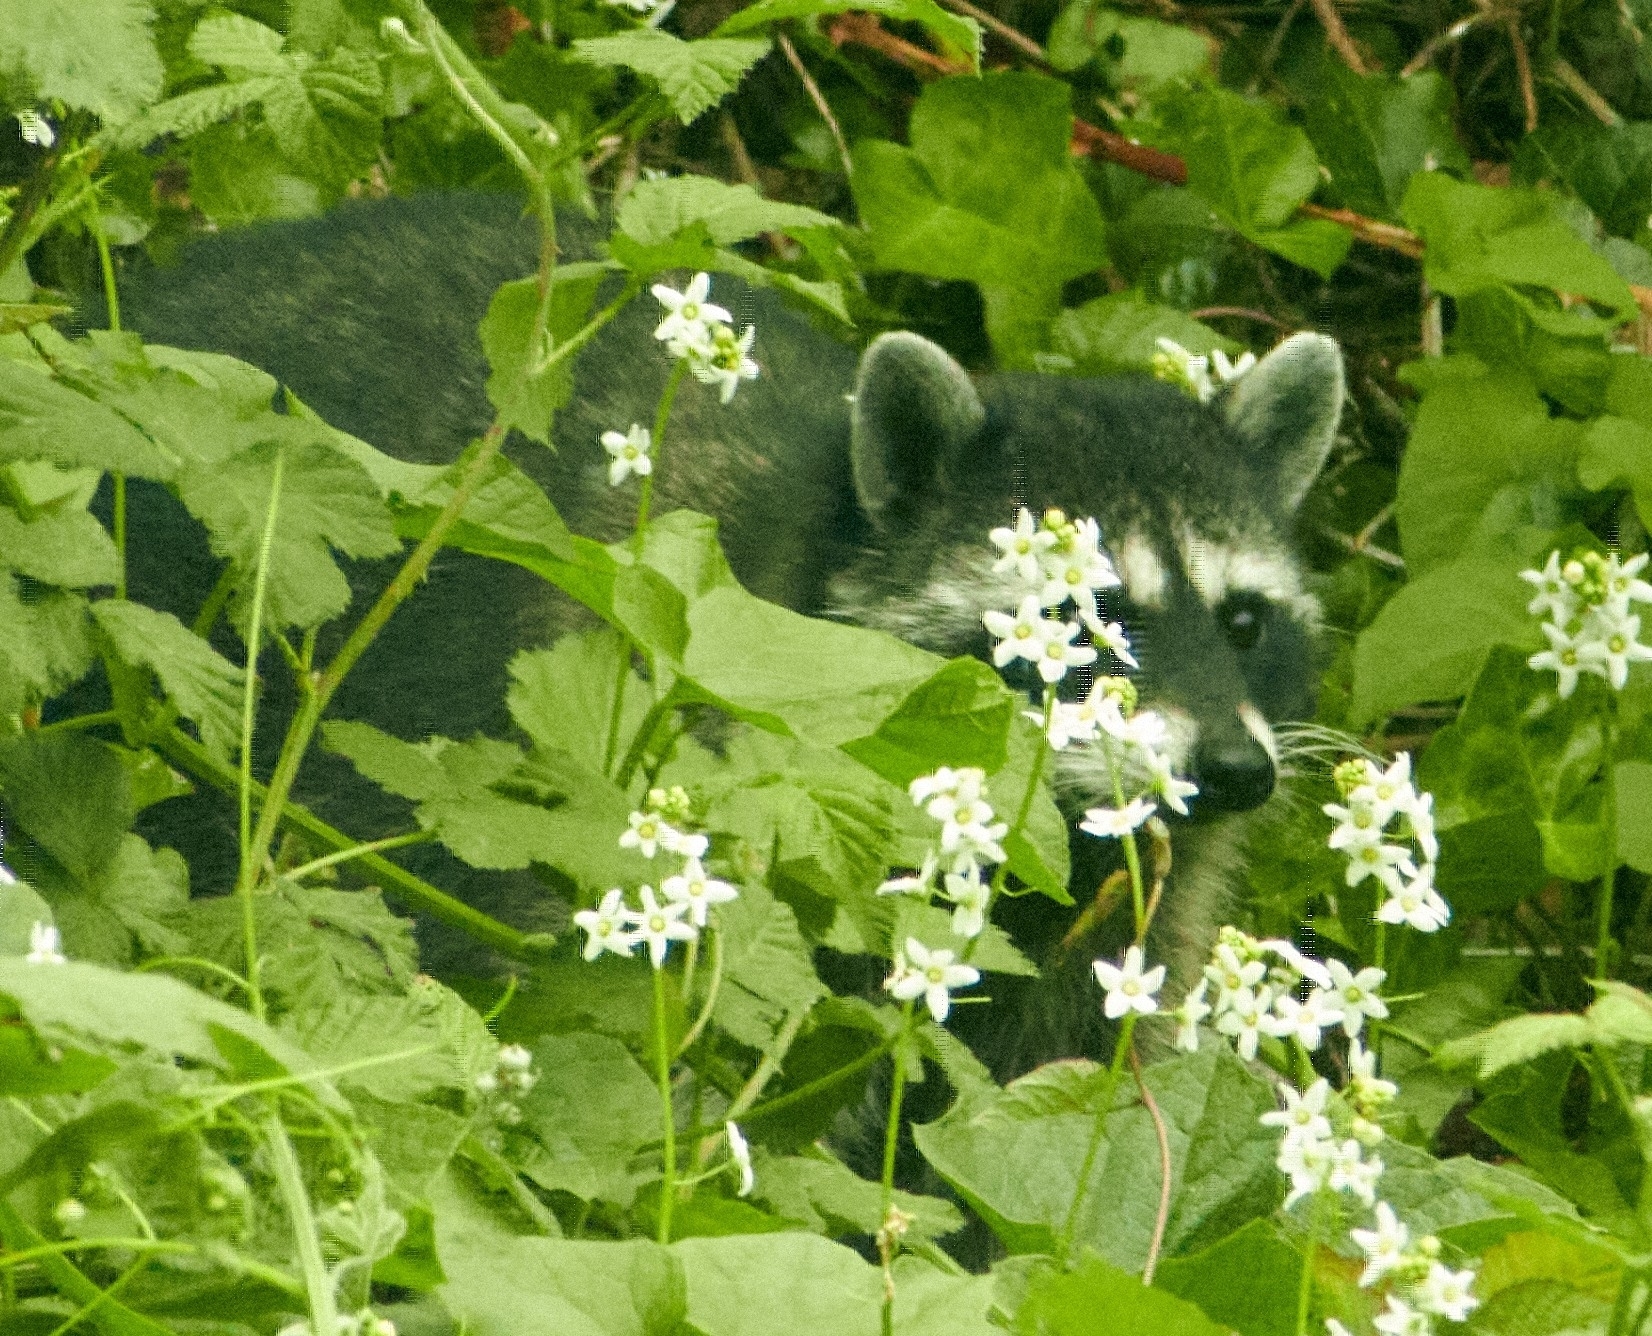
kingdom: Animalia
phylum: Chordata
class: Mammalia
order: Carnivora
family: Procyonidae
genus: Procyon
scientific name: Procyon lotor
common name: Raccoon
